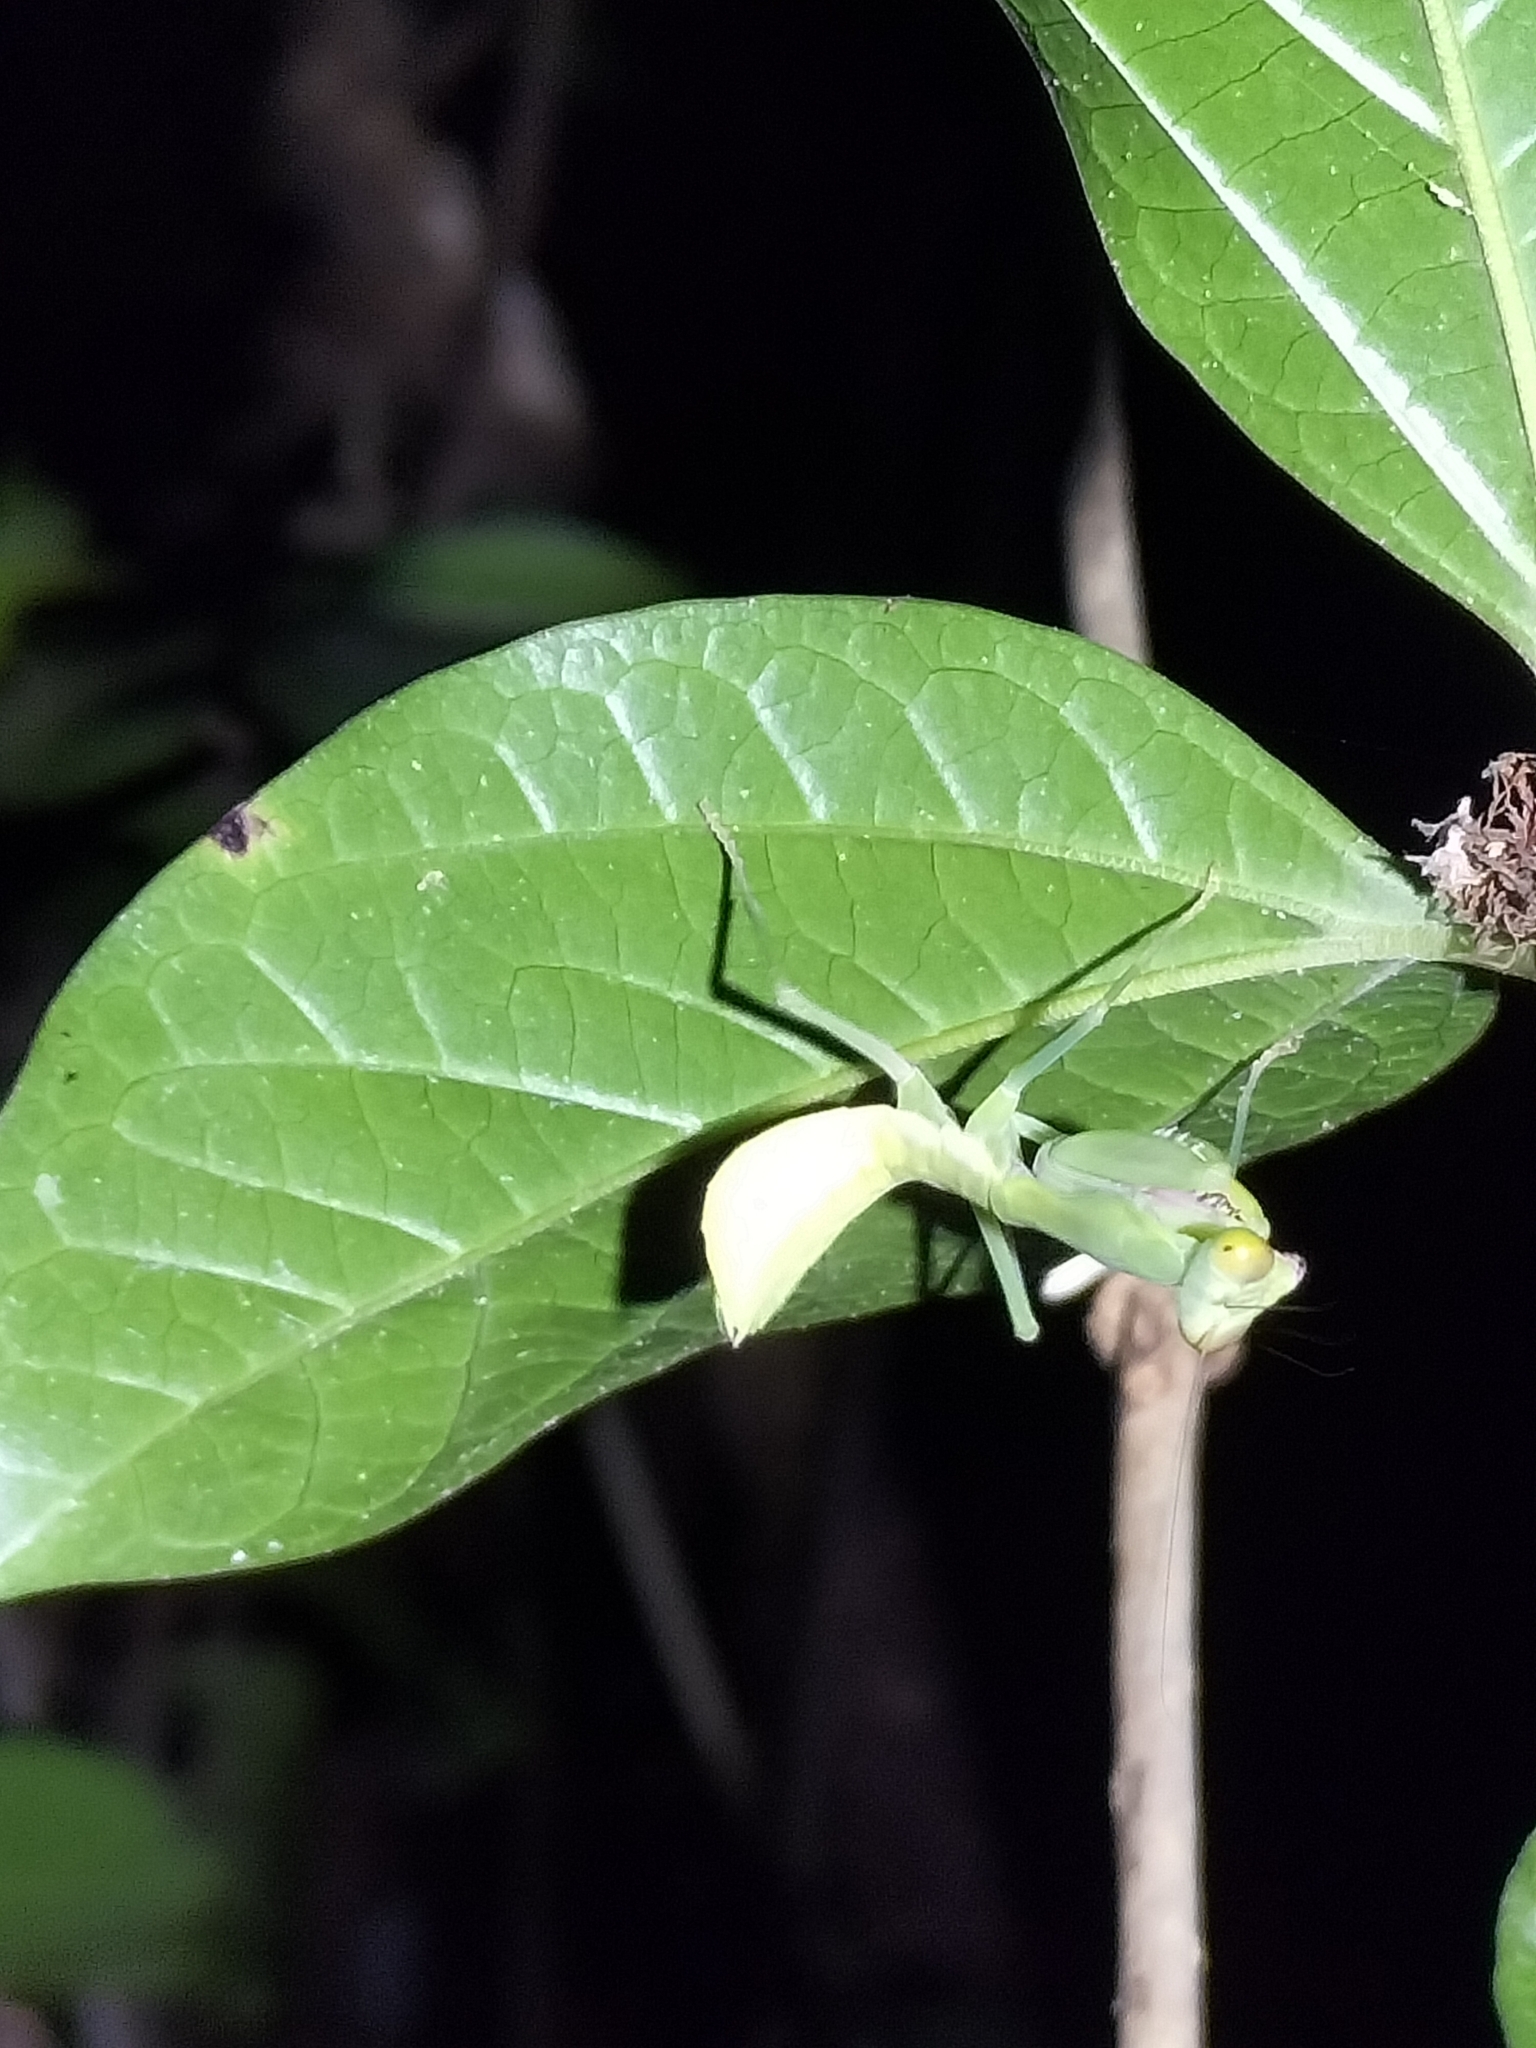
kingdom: Animalia
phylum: Arthropoda
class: Insecta
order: Mantodea
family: Mantidae
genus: Hierodula
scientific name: Hierodula majuscula
